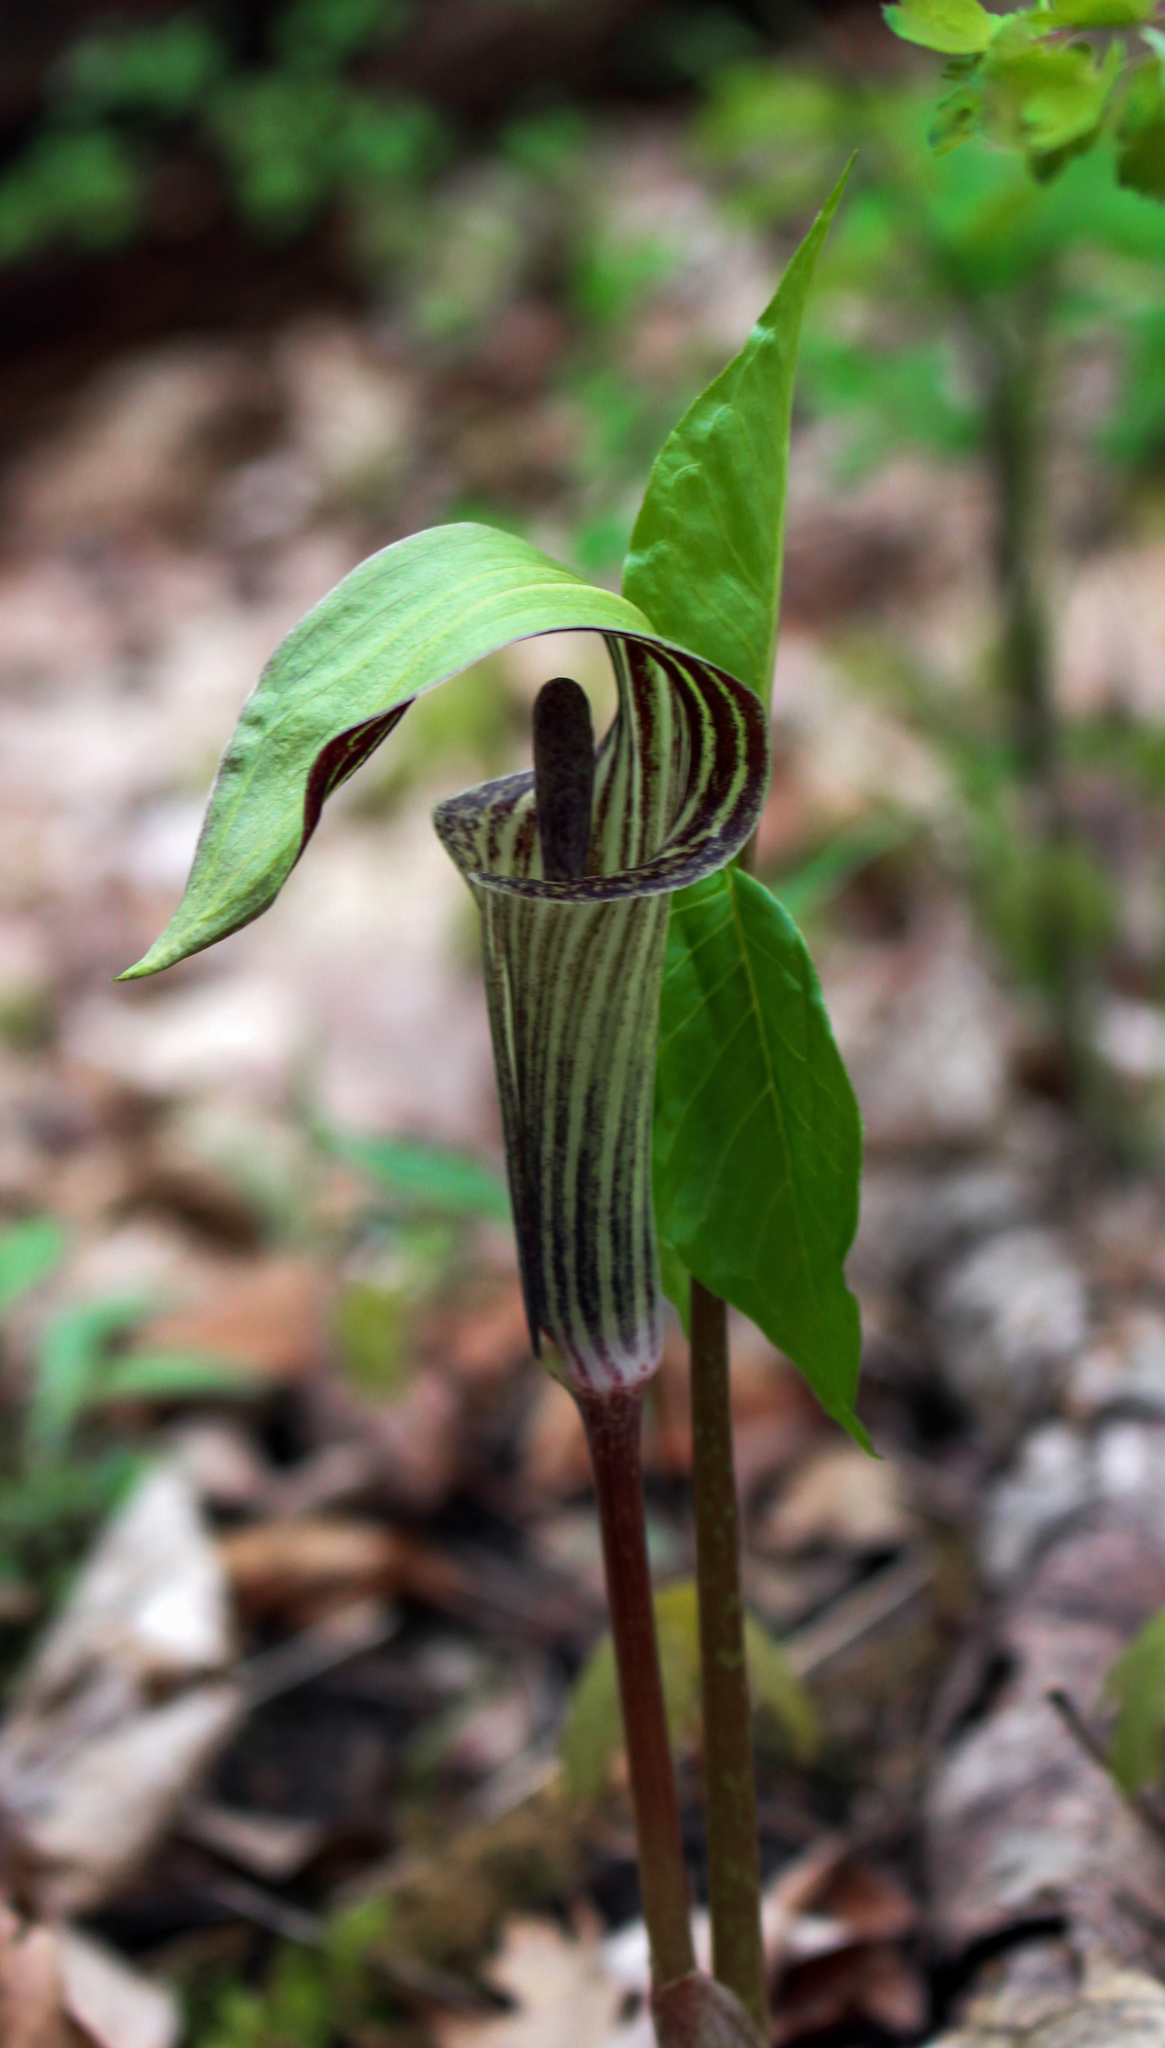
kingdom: Plantae
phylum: Tracheophyta
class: Liliopsida
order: Alismatales
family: Araceae
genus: Arisaema
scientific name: Arisaema triphyllum
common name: Jack-in-the-pulpit
